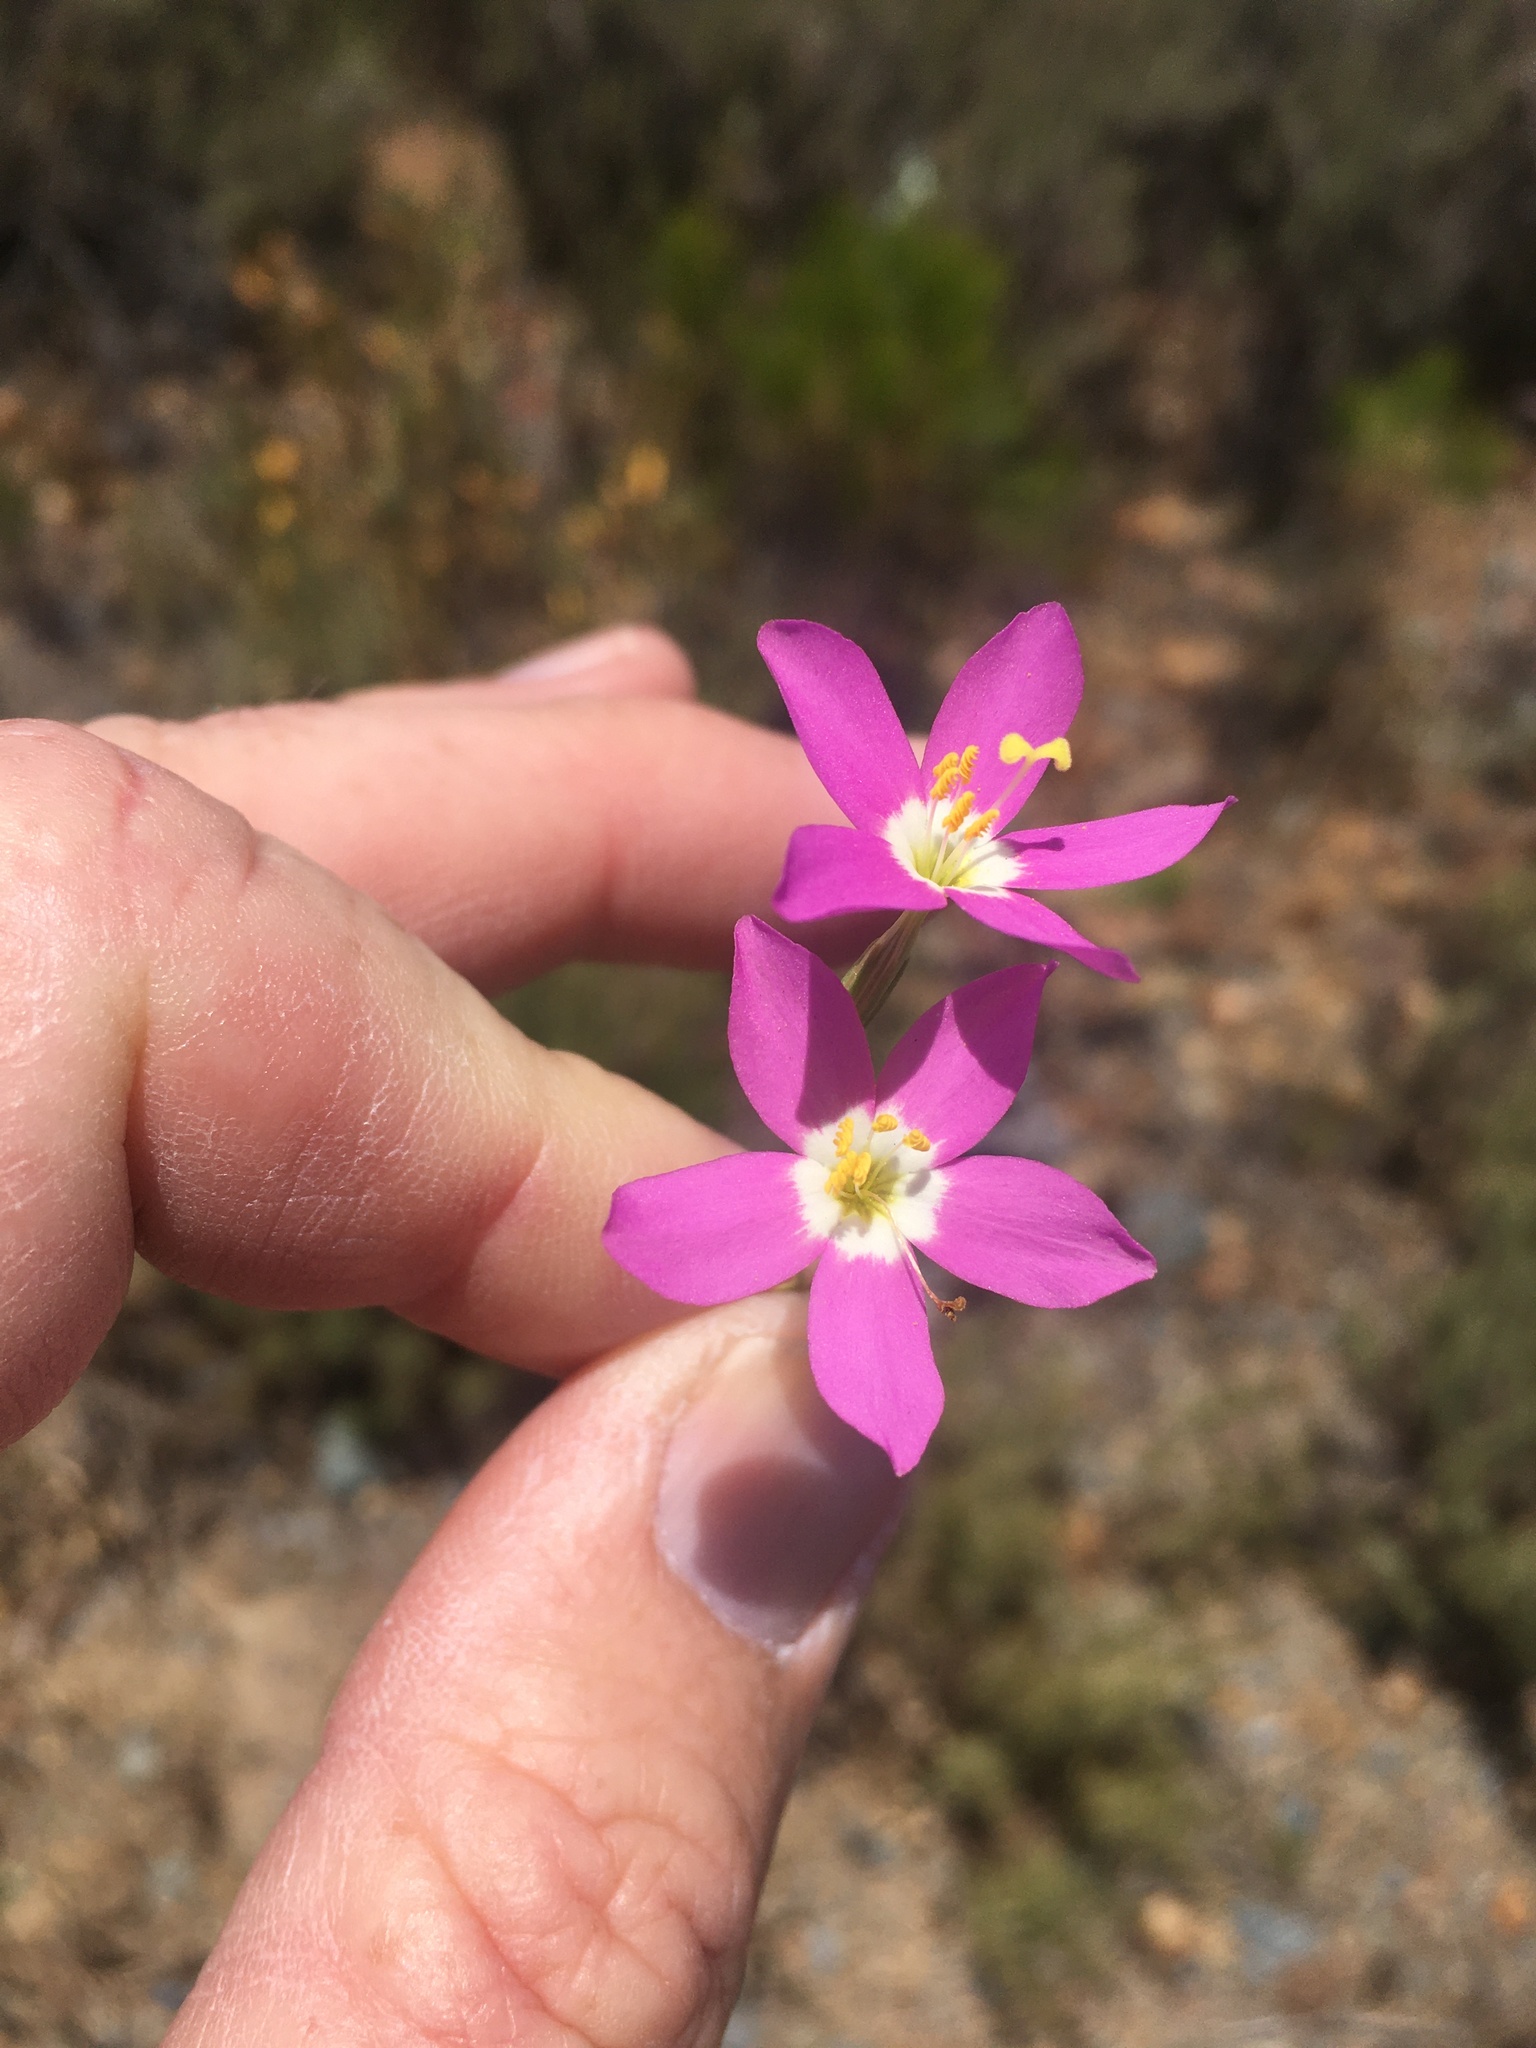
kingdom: Plantae
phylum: Tracheophyta
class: Magnoliopsida
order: Gentianales
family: Gentianaceae
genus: Zeltnera
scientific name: Zeltnera venusta
